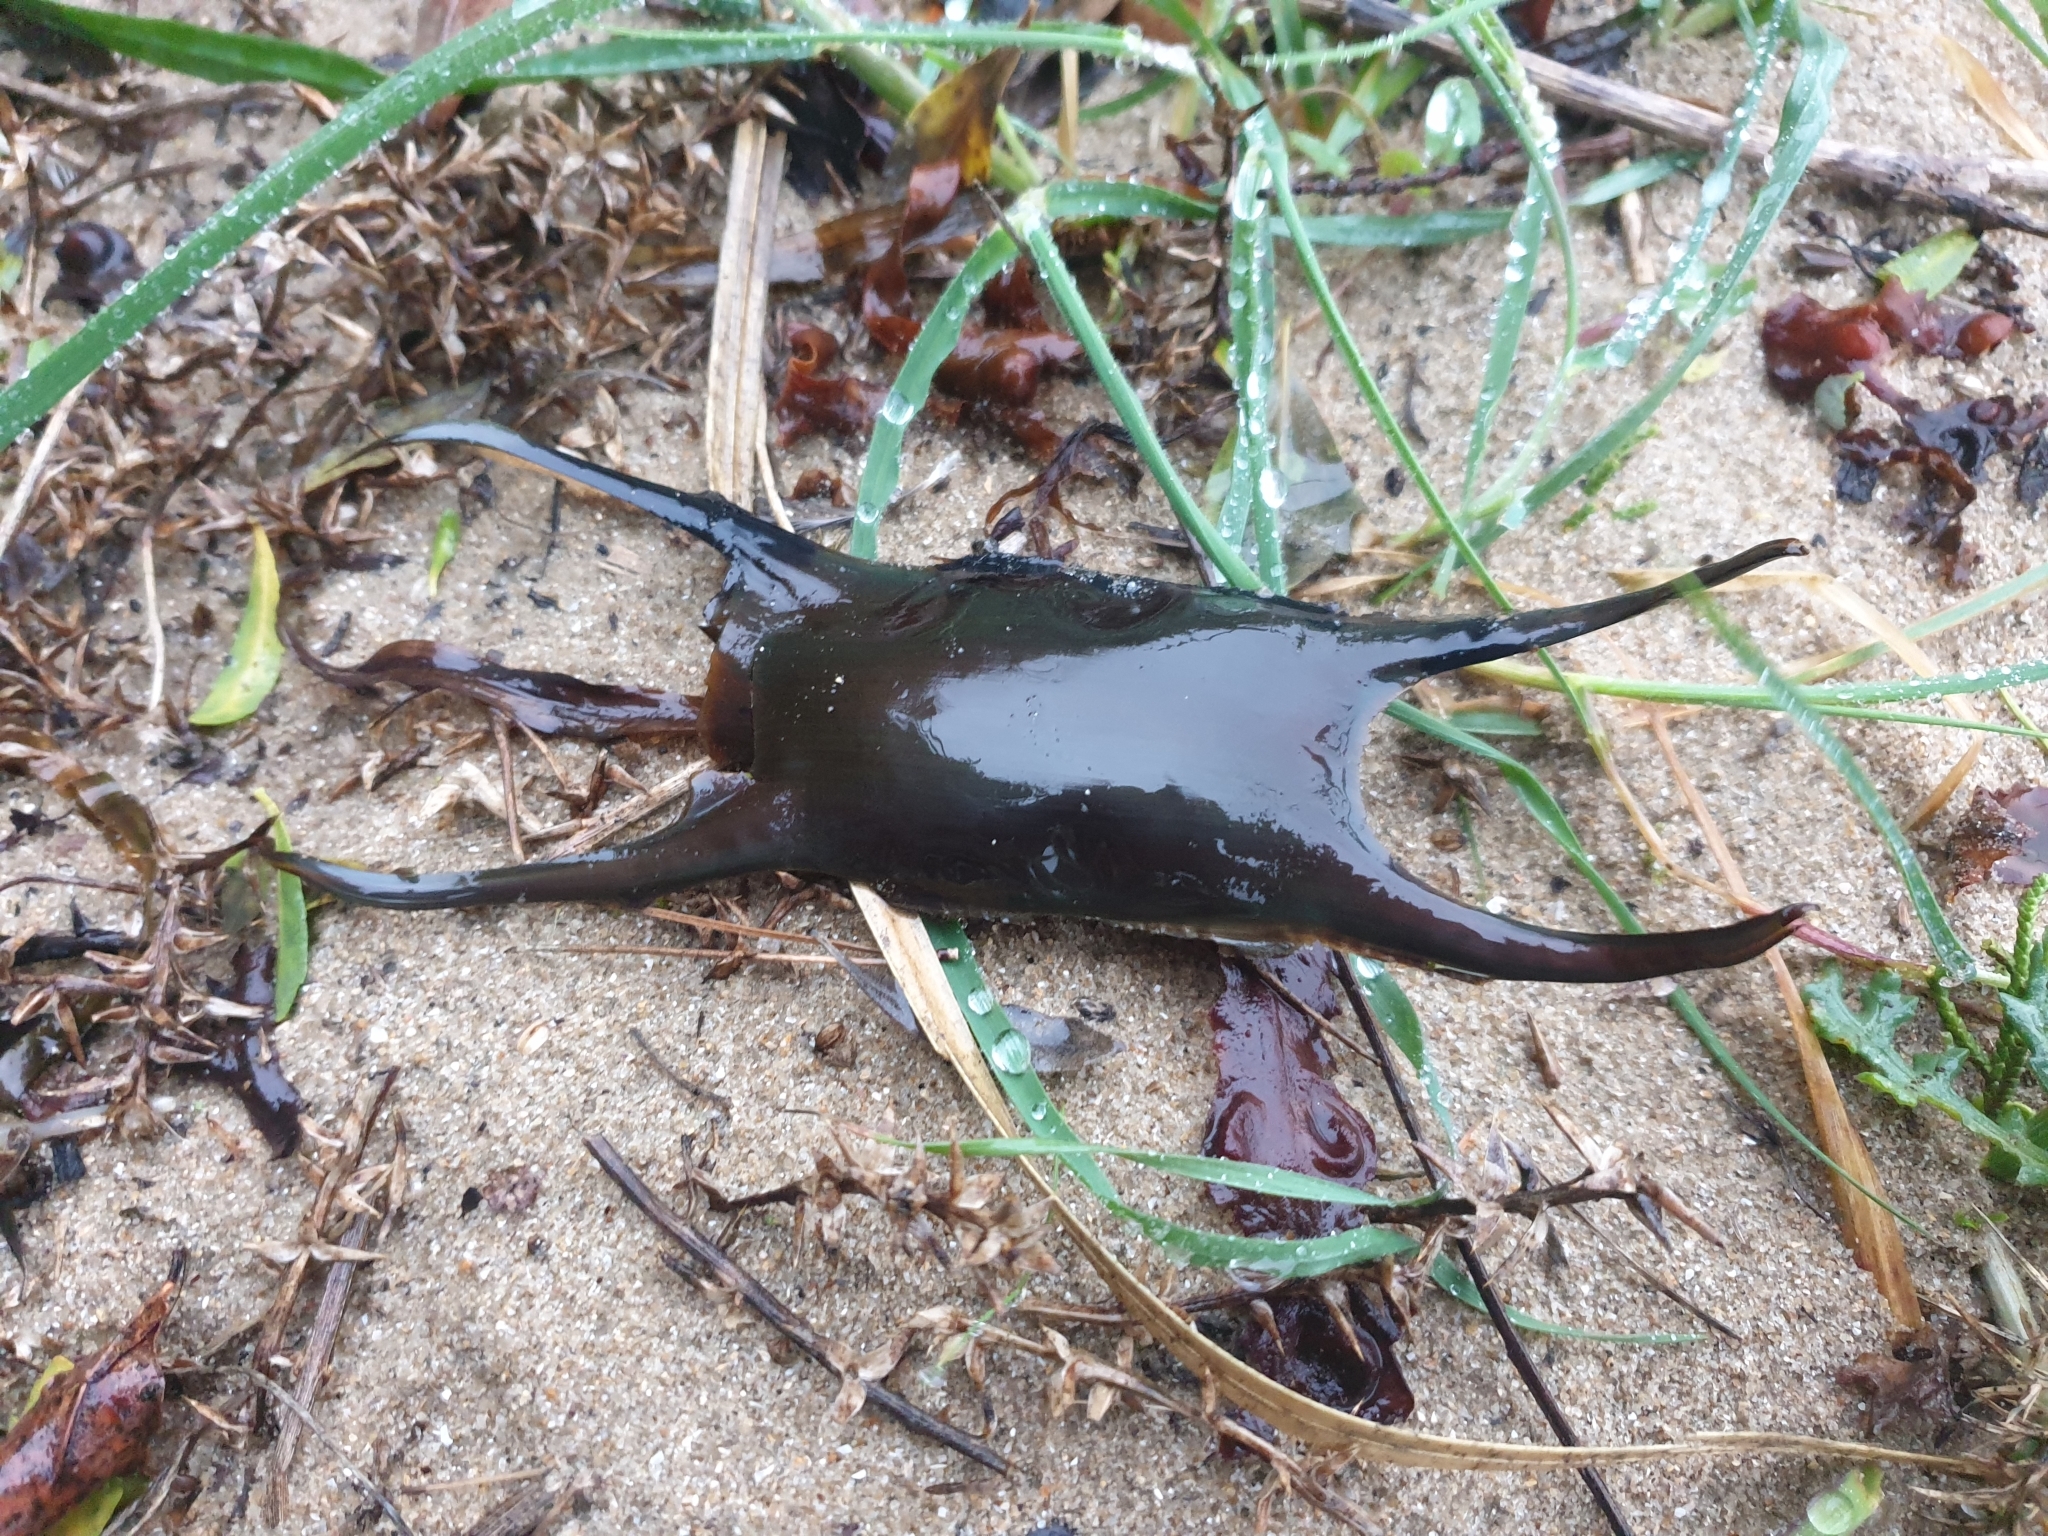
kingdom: Animalia
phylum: Chordata
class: Elasmobranchii
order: Rajiformes
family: Rajidae
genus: Raja
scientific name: Raja montagui
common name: Spotted ray
